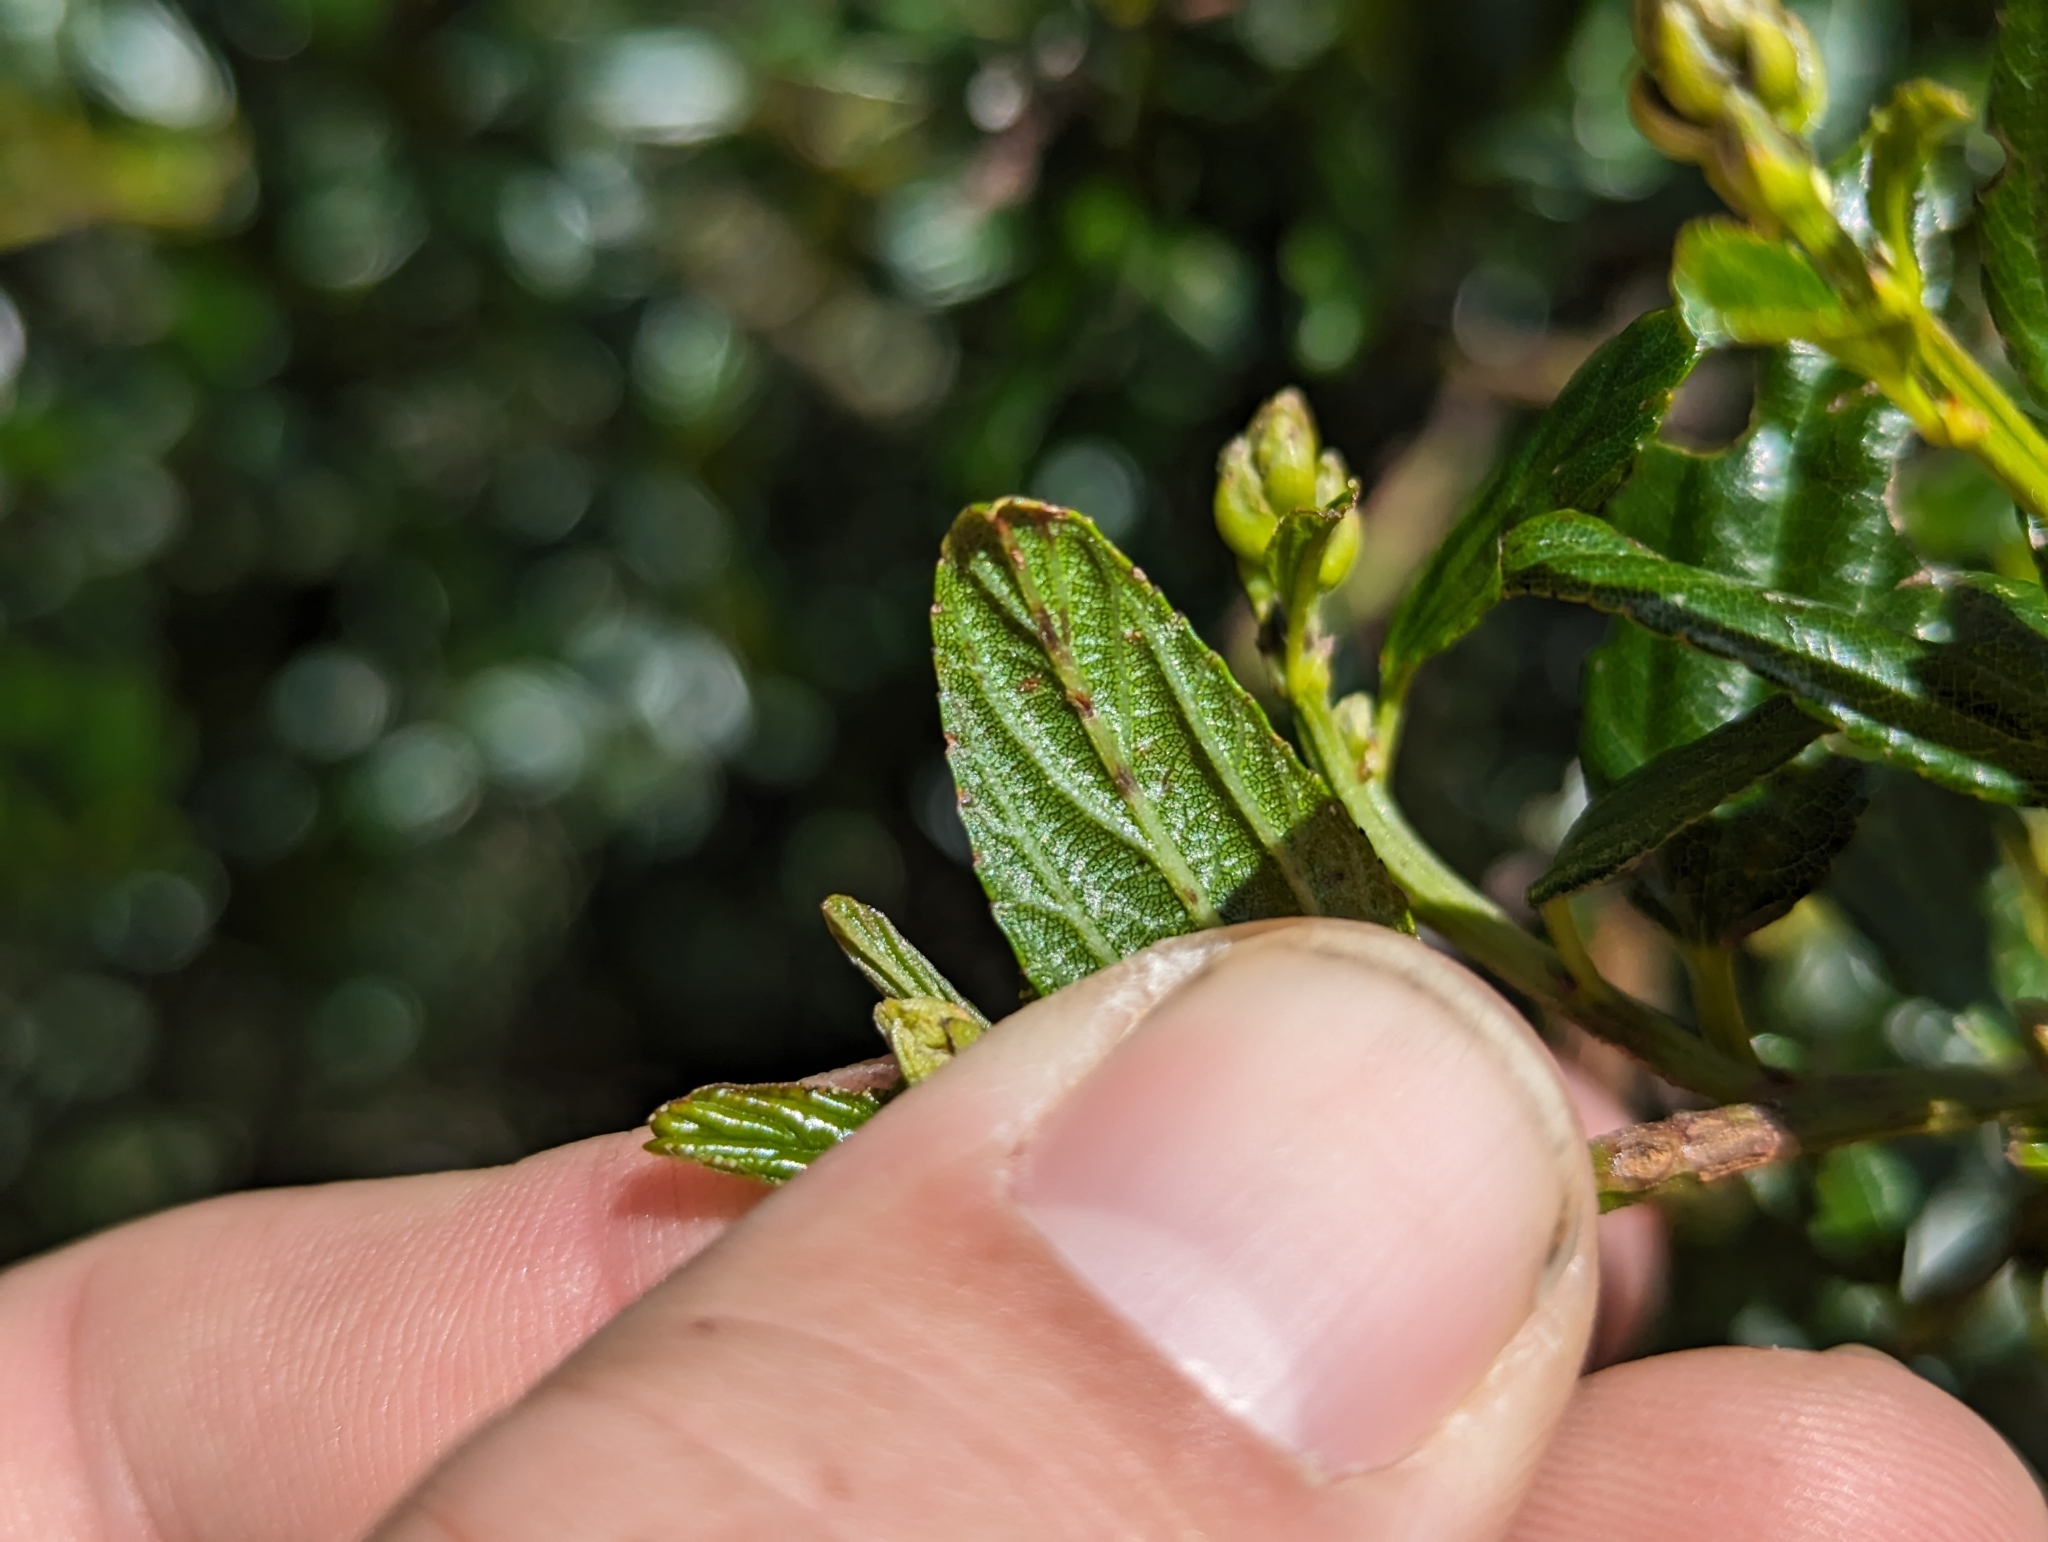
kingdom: Plantae
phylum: Tracheophyta
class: Magnoliopsida
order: Rosales
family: Rhamnaceae
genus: Ceanothus
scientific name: Ceanothus thyrsiflorus
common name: California-lilac
